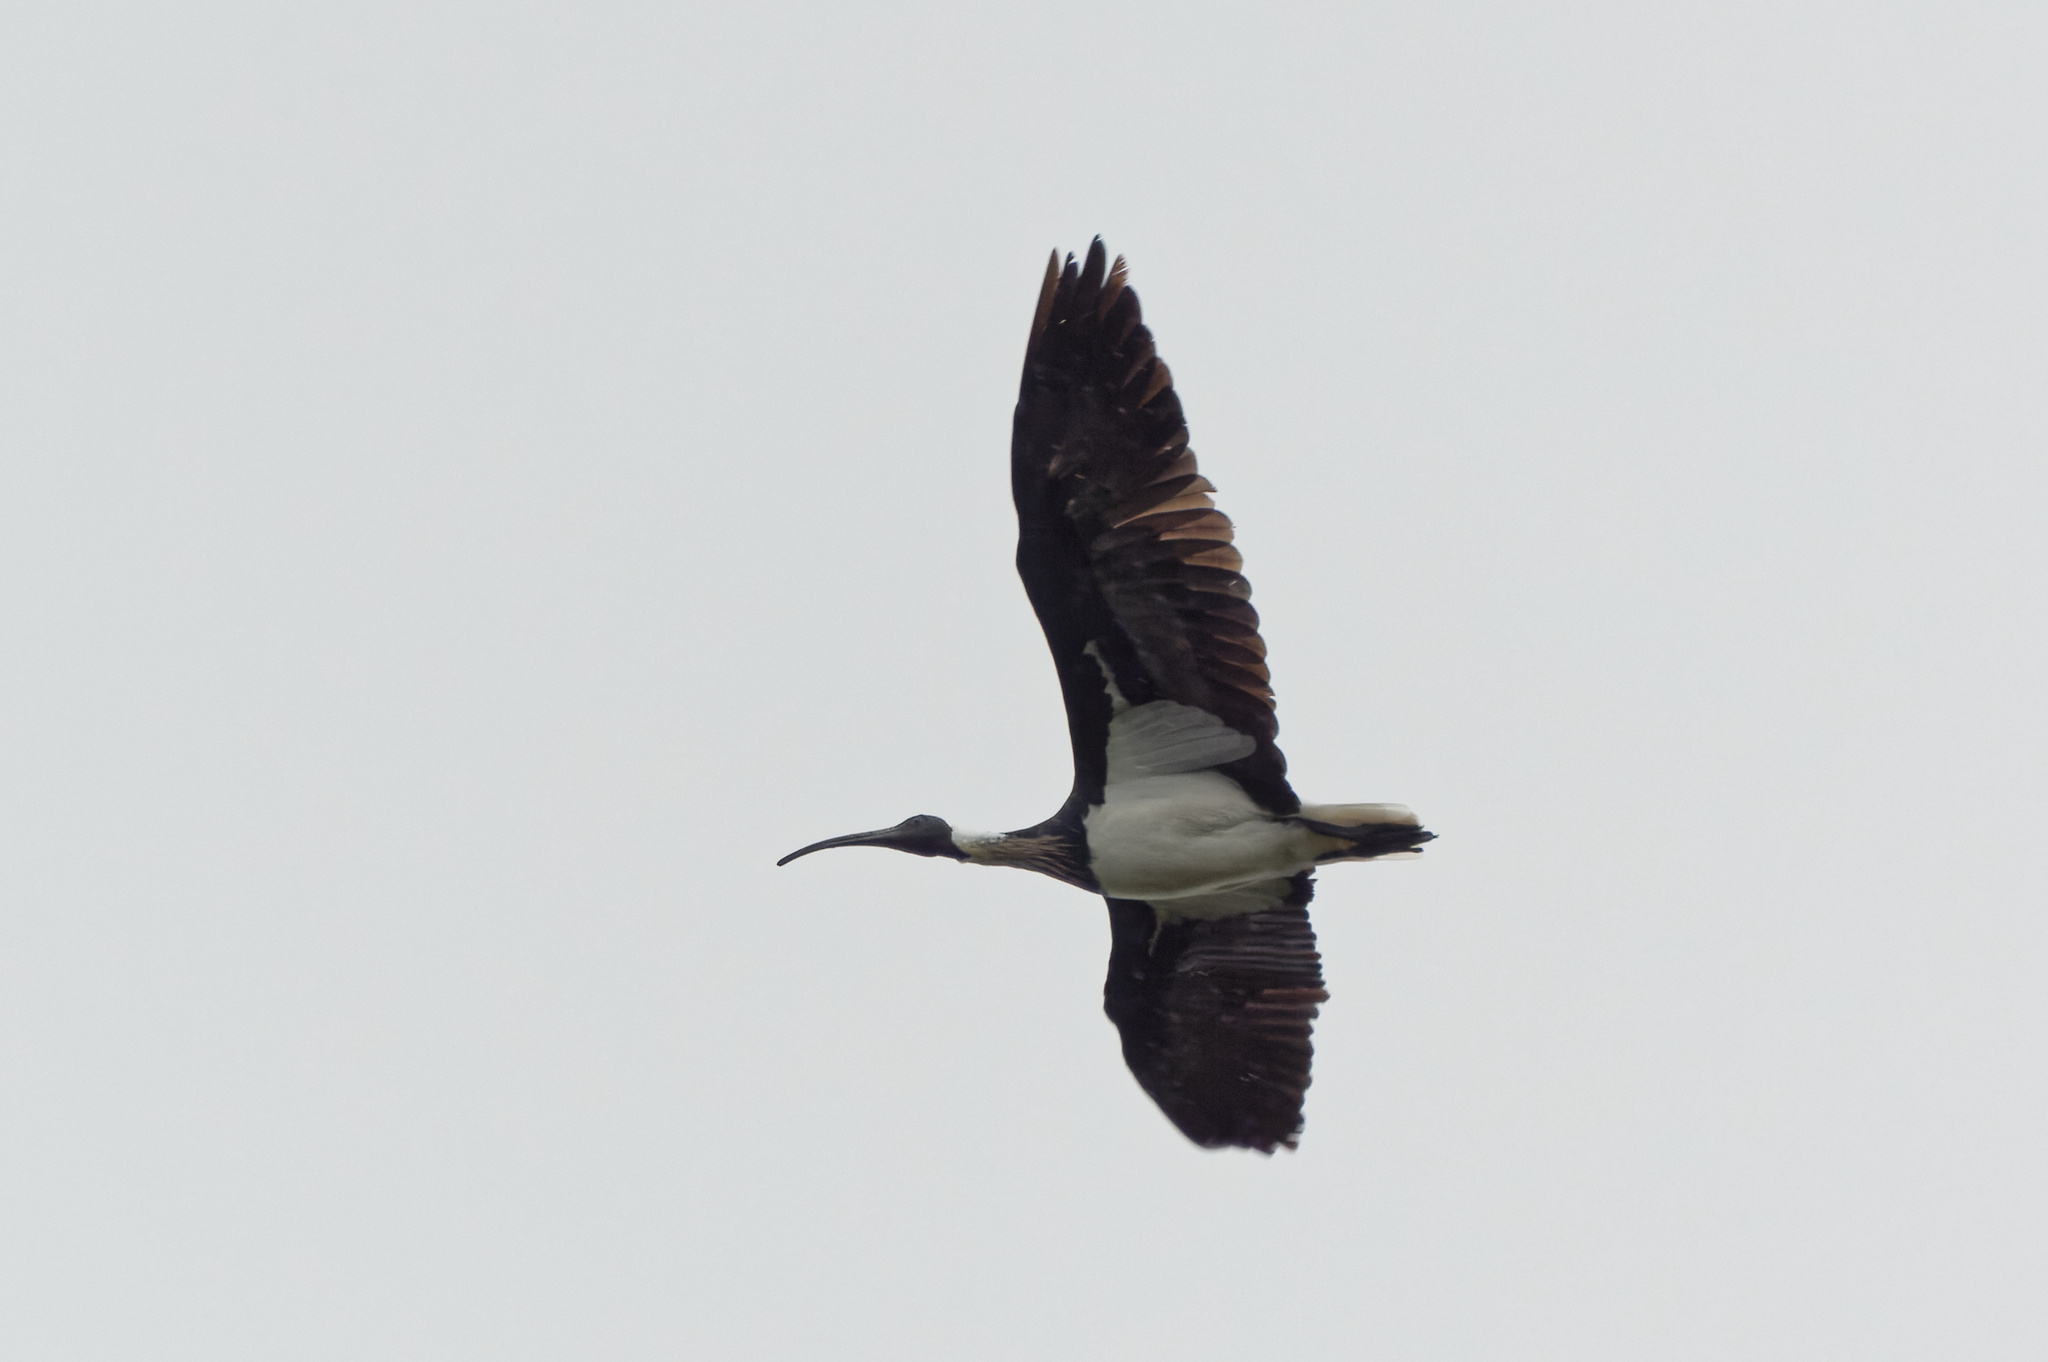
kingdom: Animalia
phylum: Chordata
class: Aves
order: Pelecaniformes
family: Threskiornithidae
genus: Threskiornis
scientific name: Threskiornis spinicollis
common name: Straw-necked ibis
